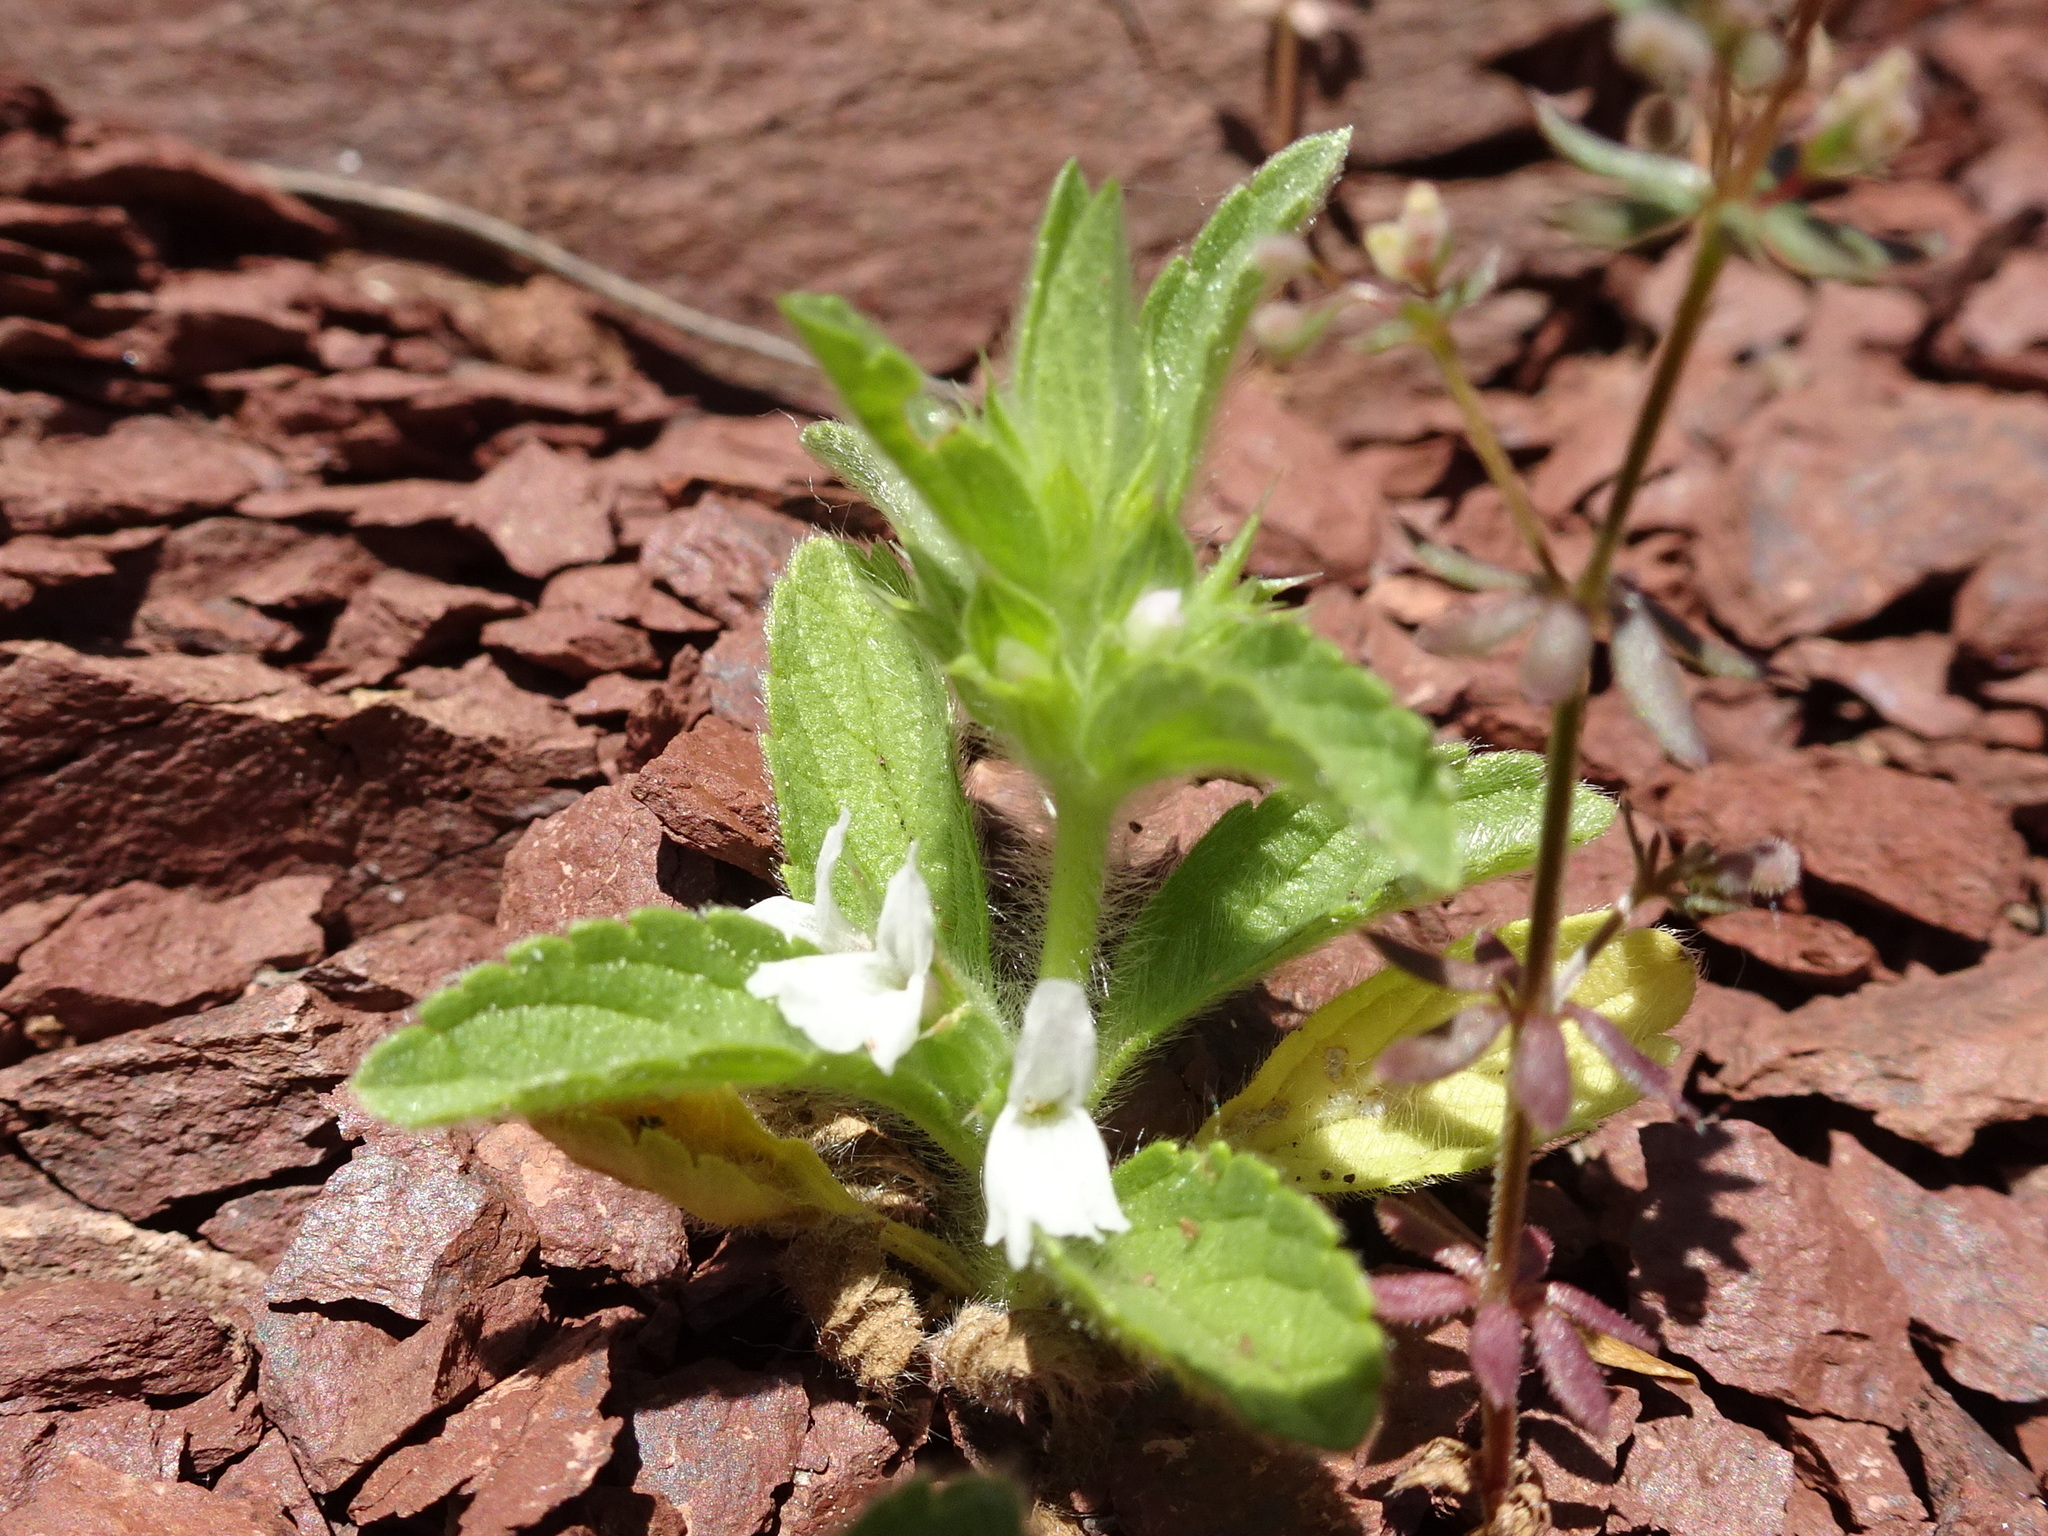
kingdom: Plantae
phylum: Tracheophyta
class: Magnoliopsida
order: Lamiales
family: Lamiaceae
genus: Sideritis
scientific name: Sideritis romana
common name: Simplebeak ironwort
